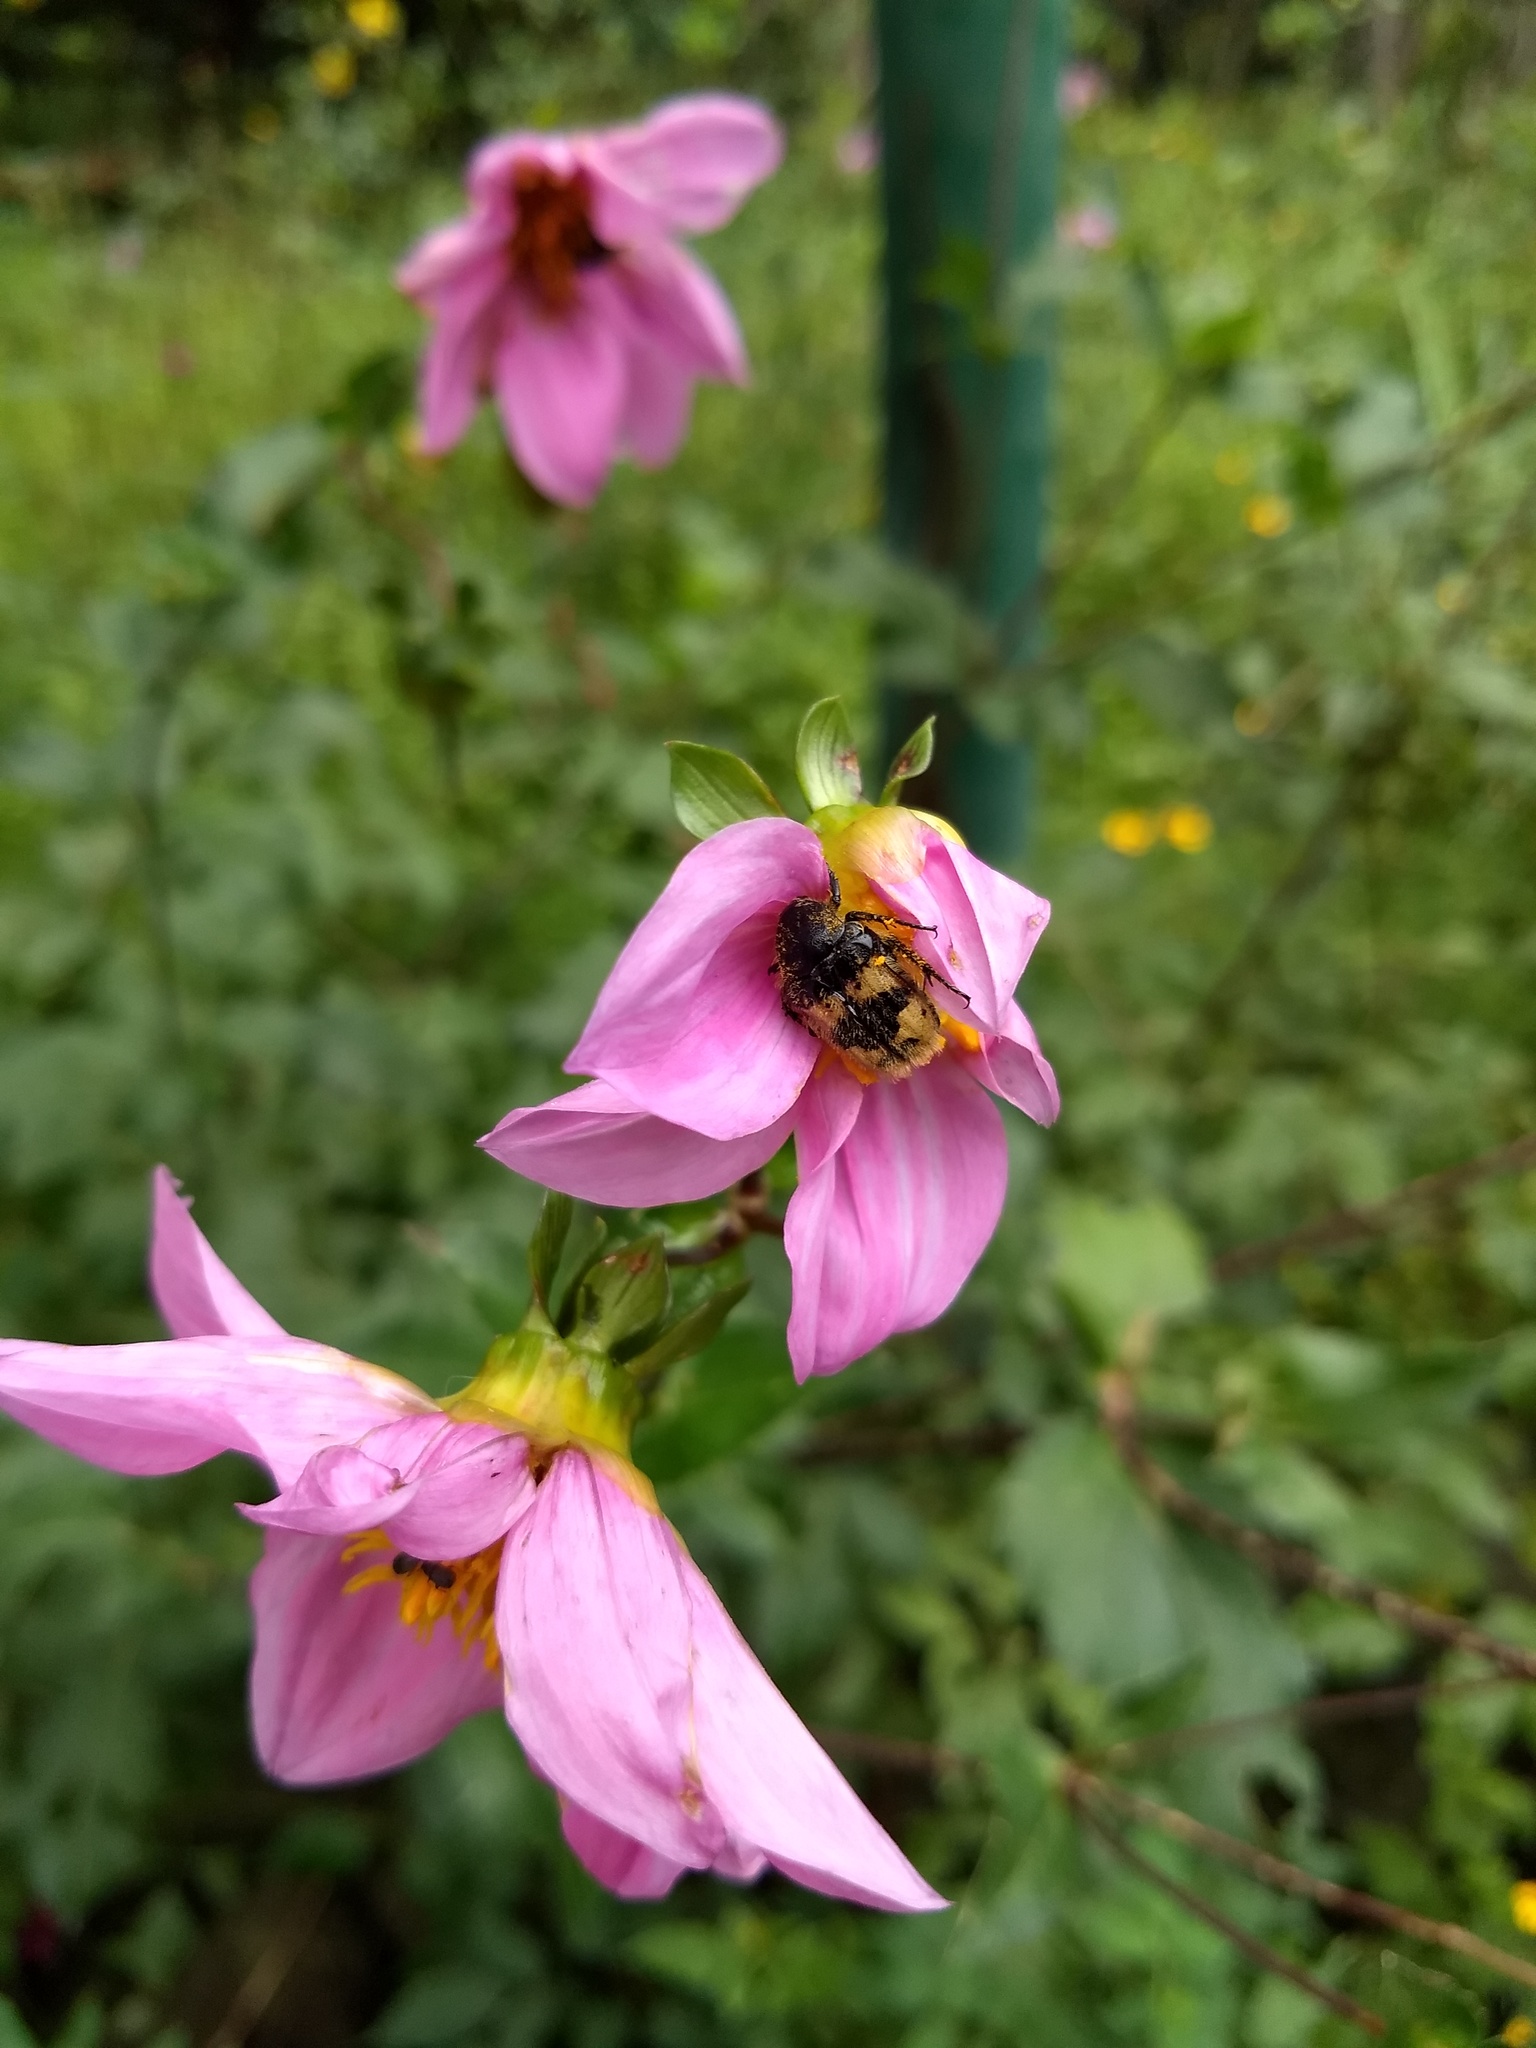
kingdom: Animalia
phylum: Arthropoda
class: Insecta
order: Coleoptera
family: Scarabaeidae
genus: Euphoria
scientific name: Euphoria basalis
